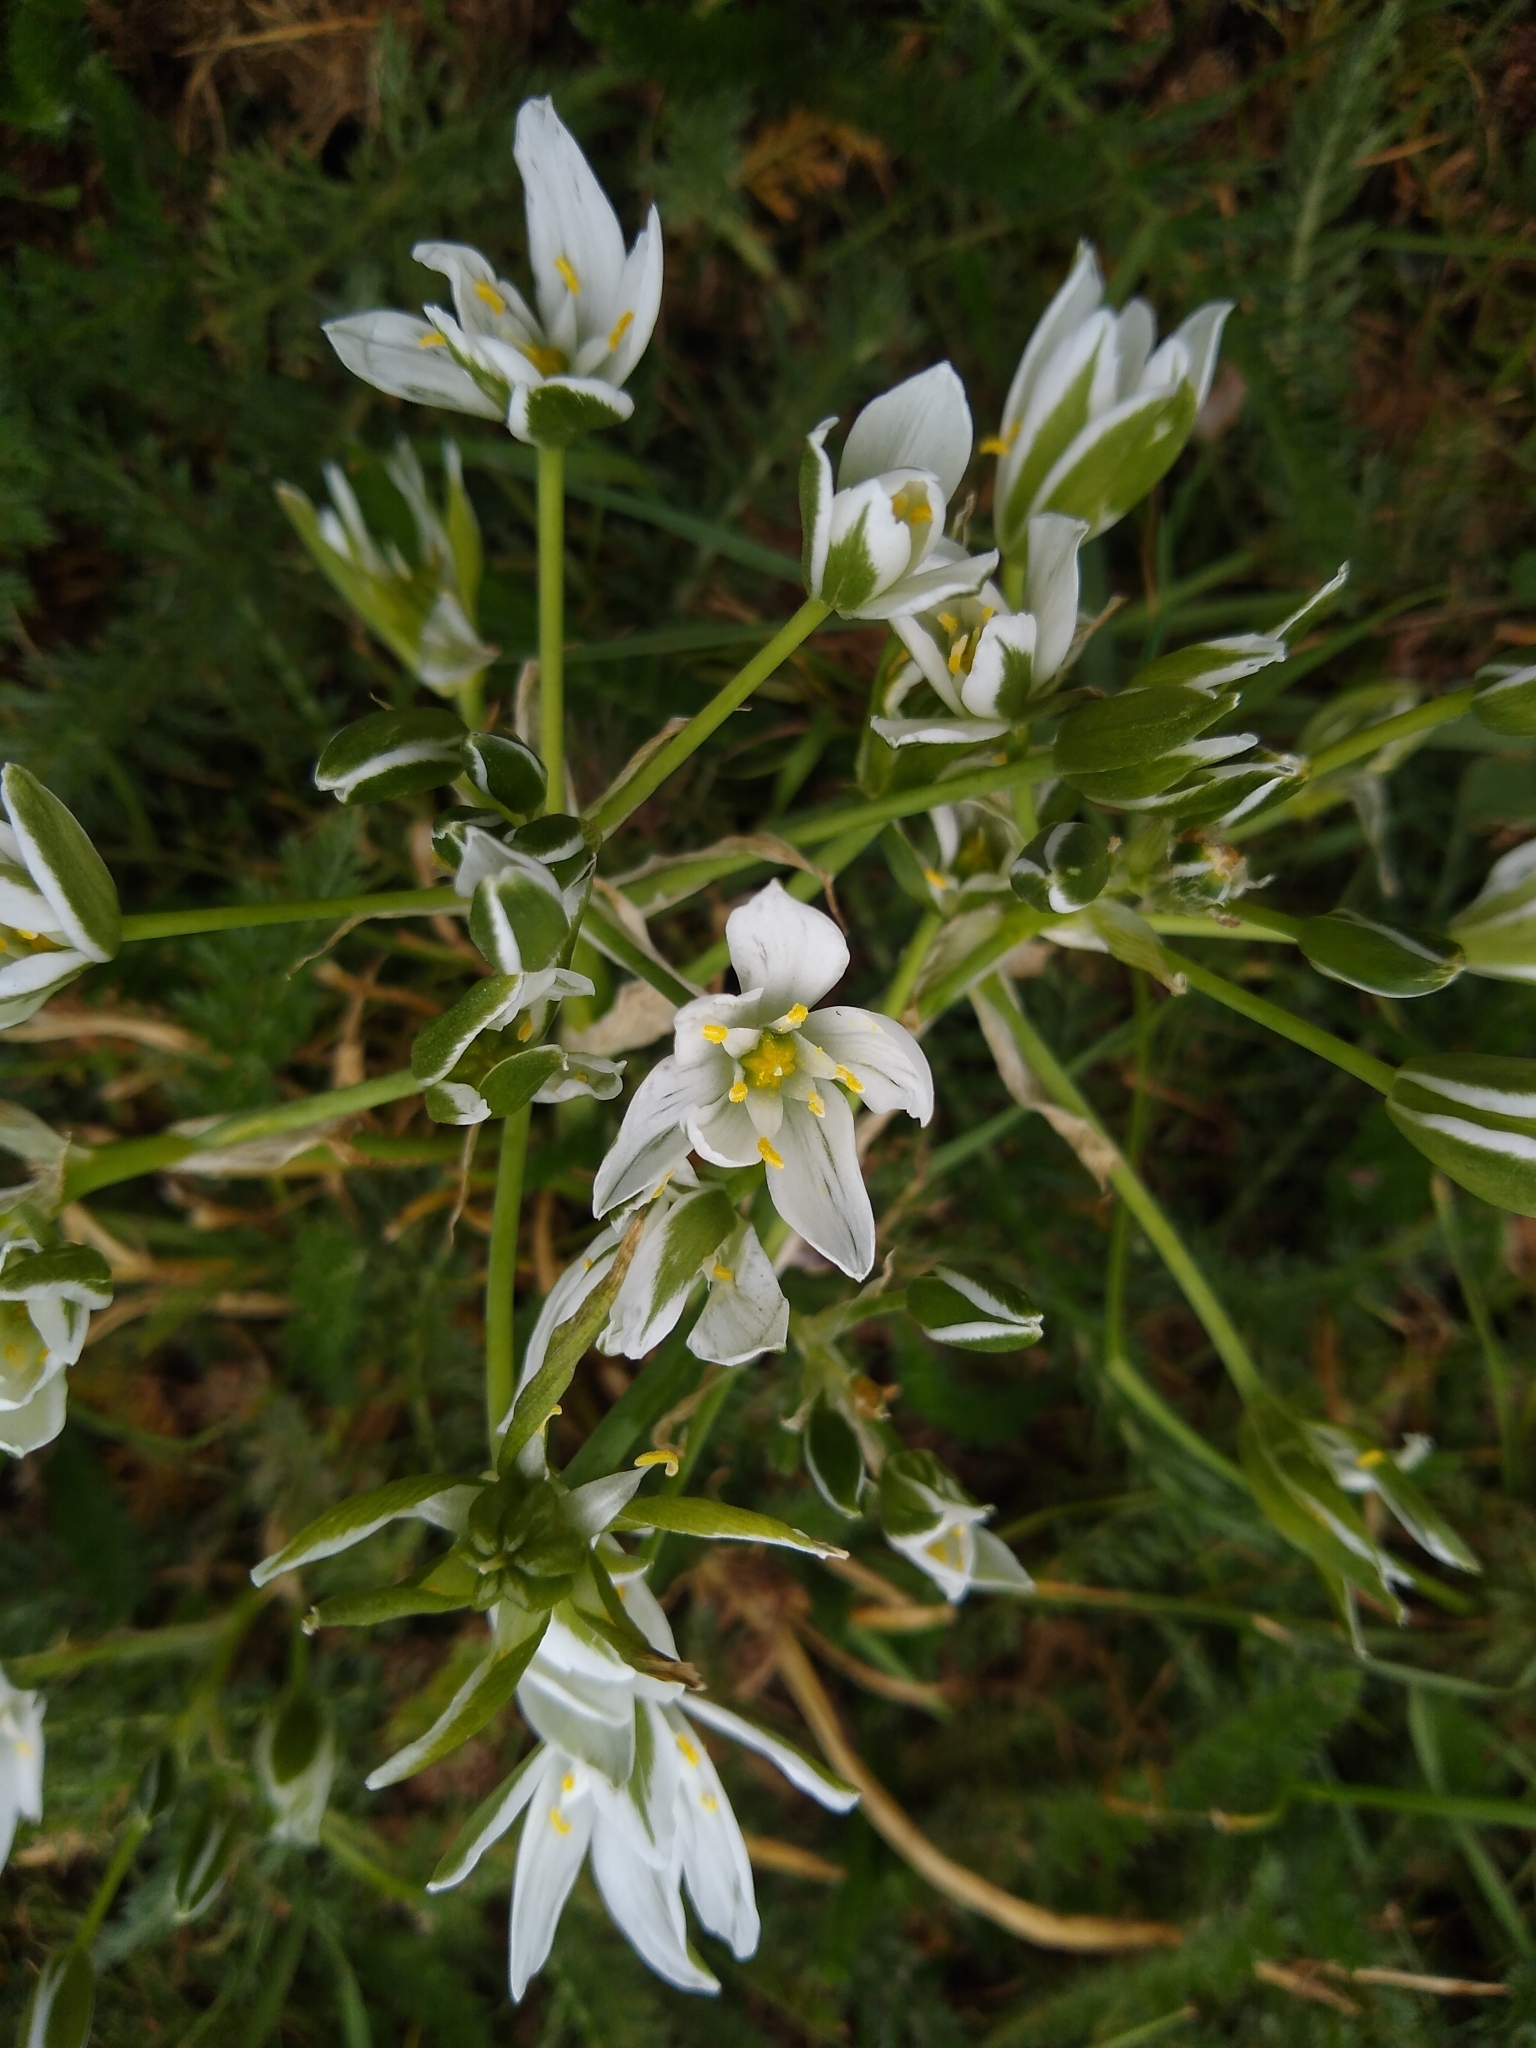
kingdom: Plantae
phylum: Tracheophyta
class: Liliopsida
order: Asparagales
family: Asparagaceae
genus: Ornithogalum
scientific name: Ornithogalum umbellatum
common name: Garden star-of-bethlehem
